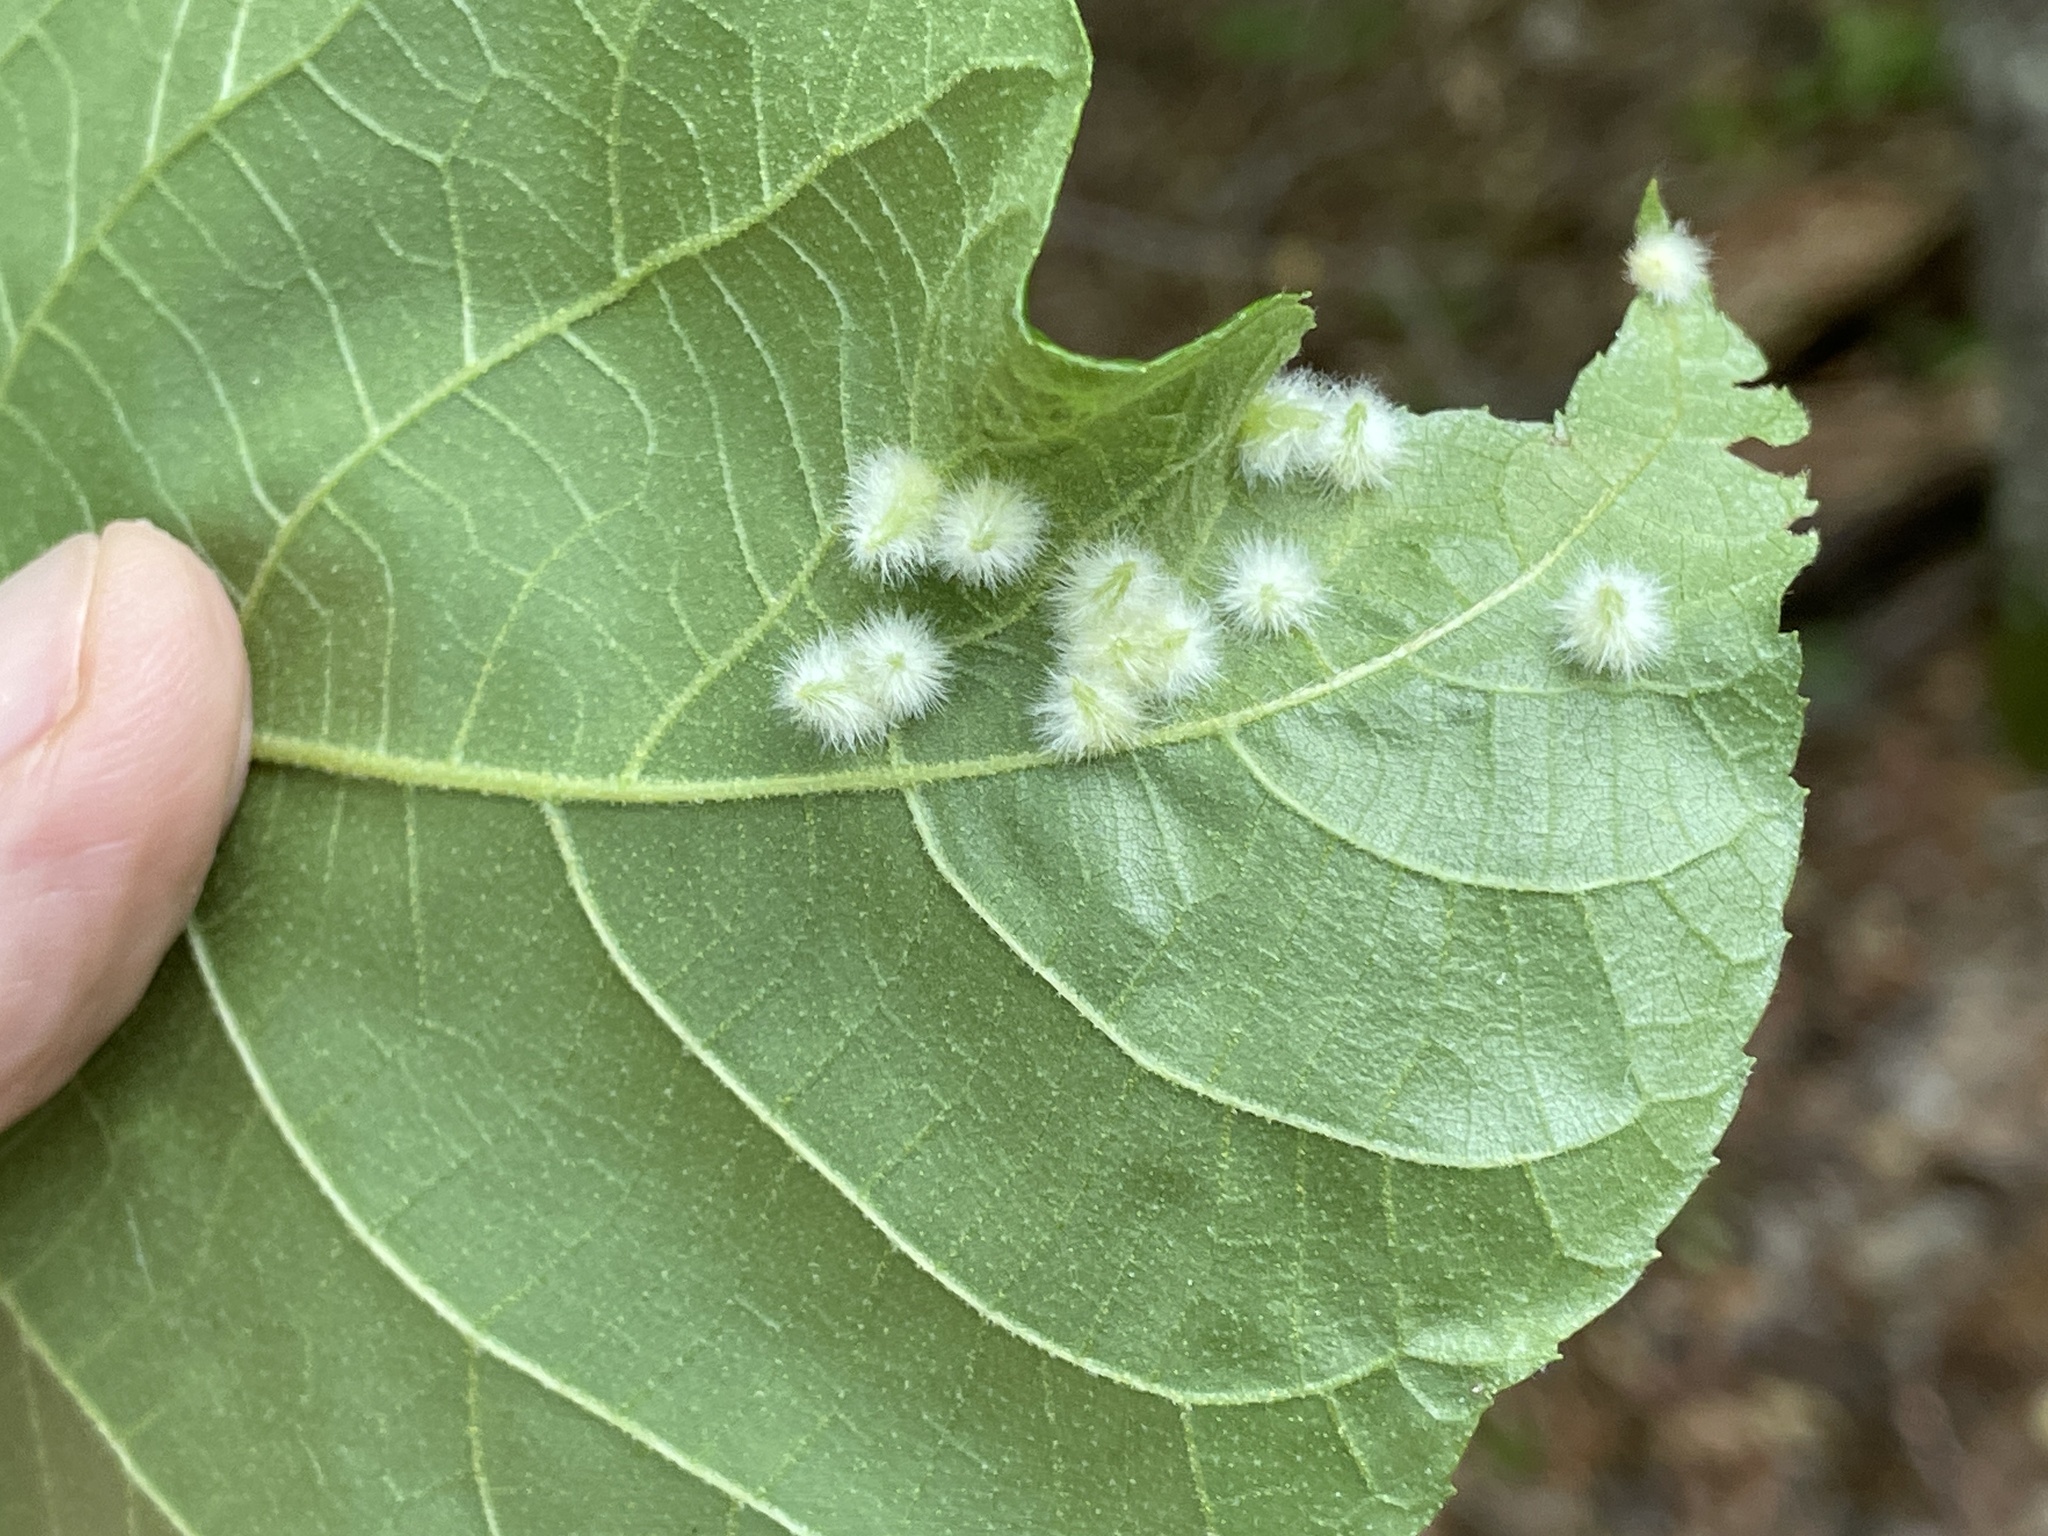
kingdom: Animalia
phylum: Arthropoda
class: Insecta
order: Diptera
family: Cecidomyiidae
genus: Caryomyia
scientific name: Caryomyia albipilosa
